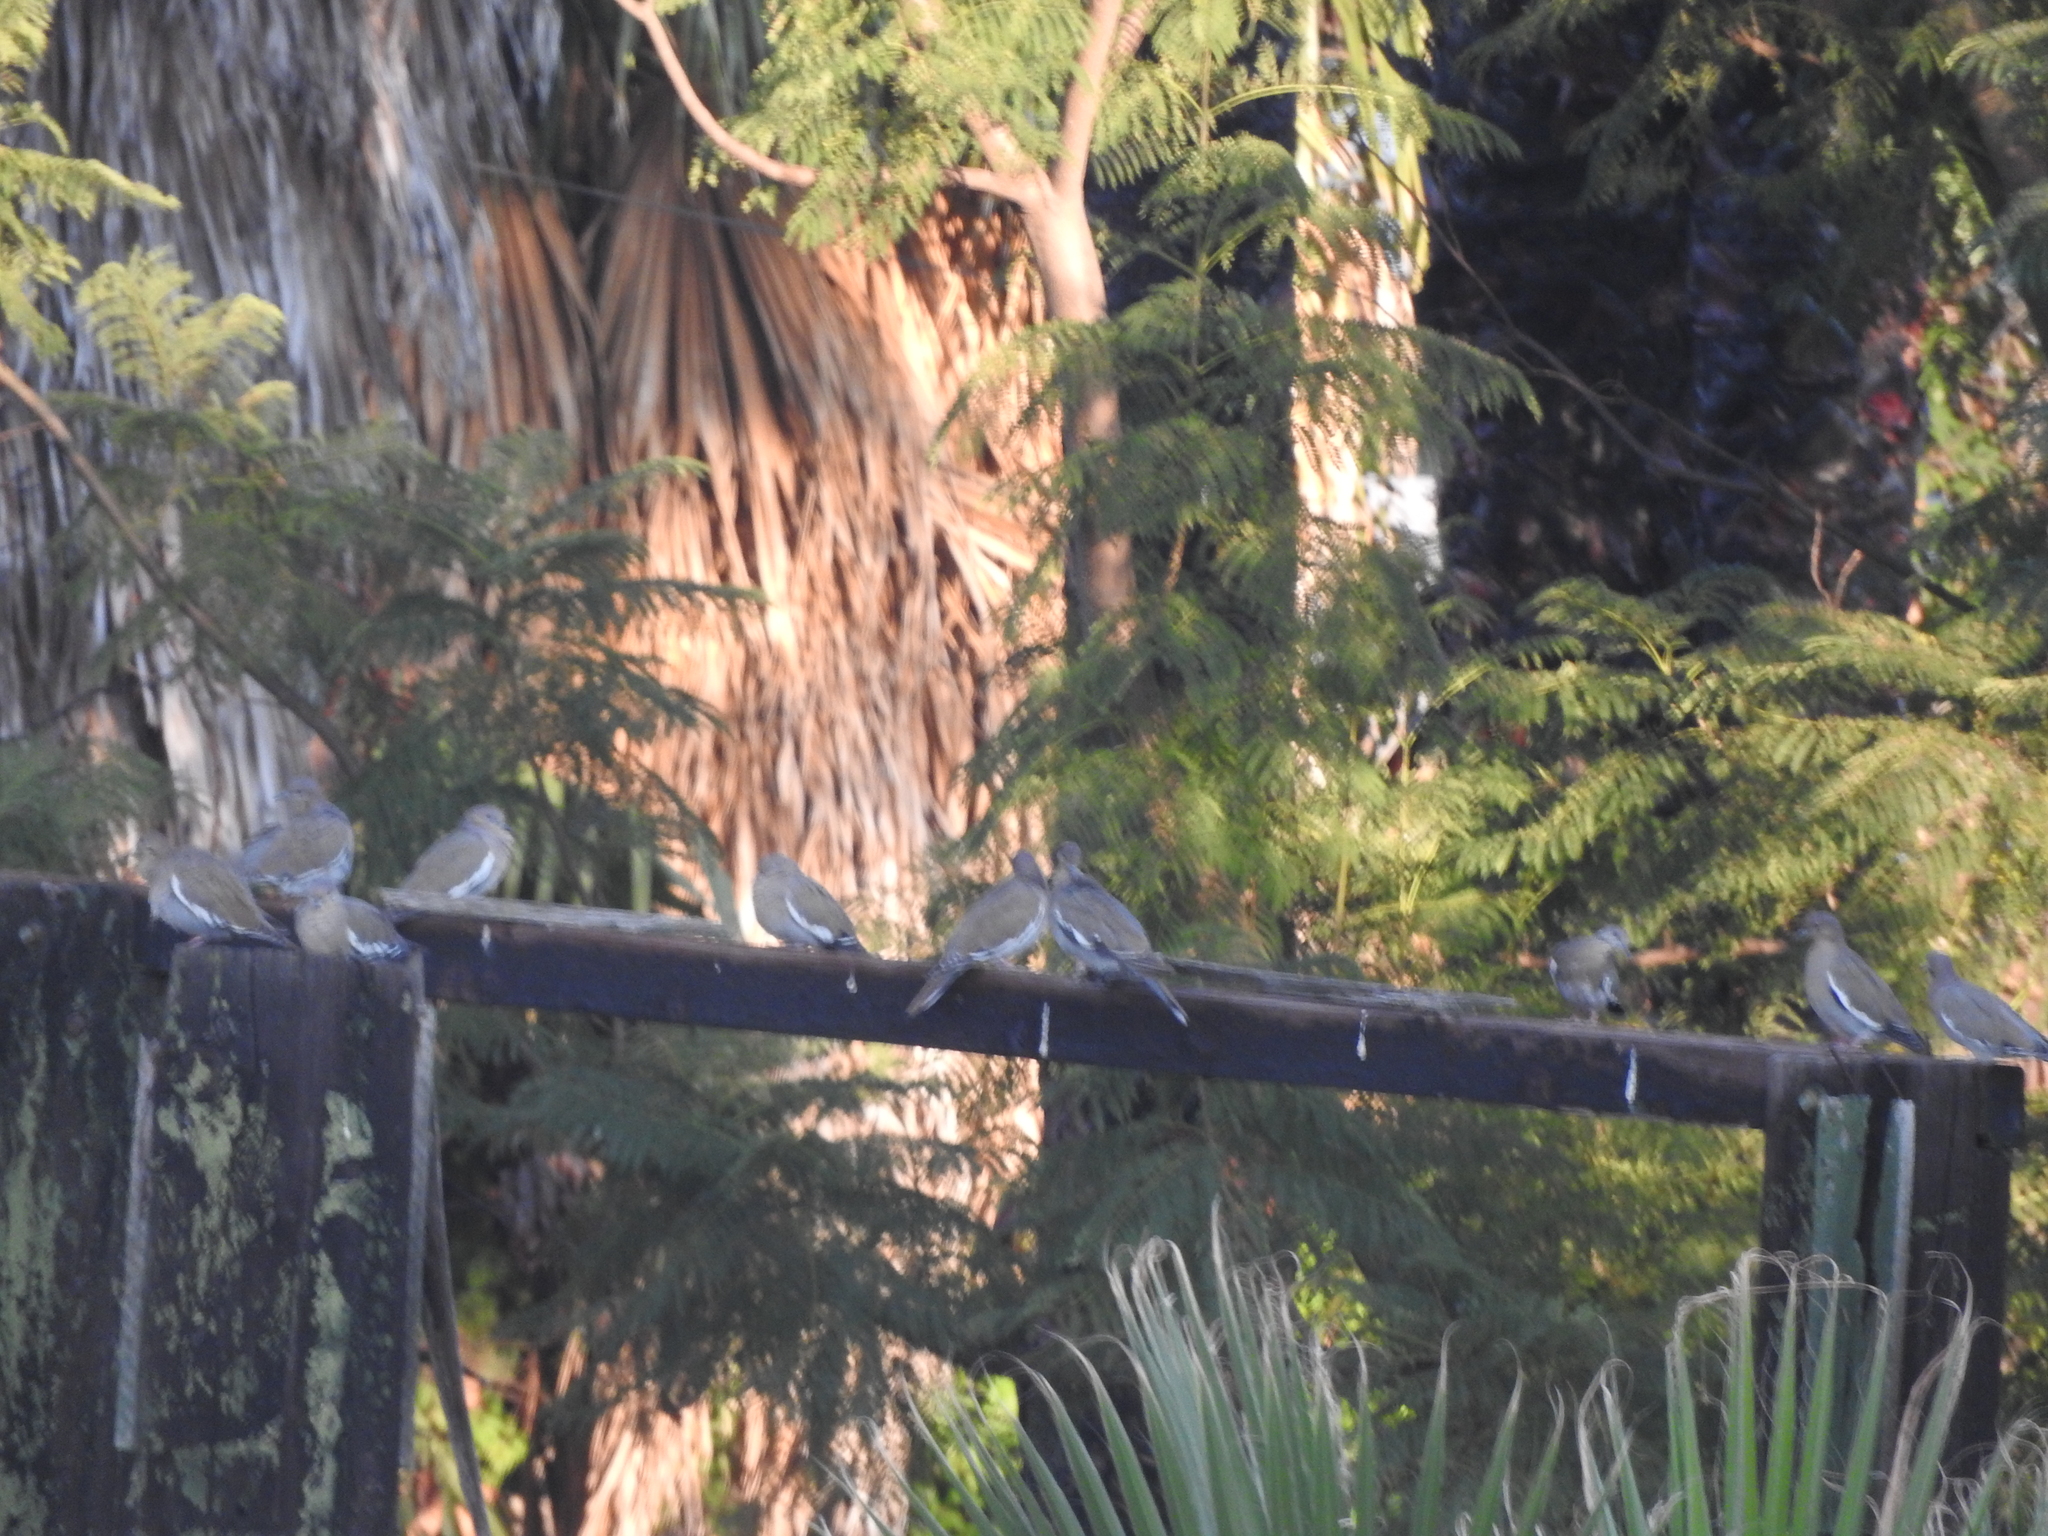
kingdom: Animalia
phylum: Chordata
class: Aves
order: Columbiformes
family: Columbidae
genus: Zenaida
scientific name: Zenaida asiatica
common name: White-winged dove
